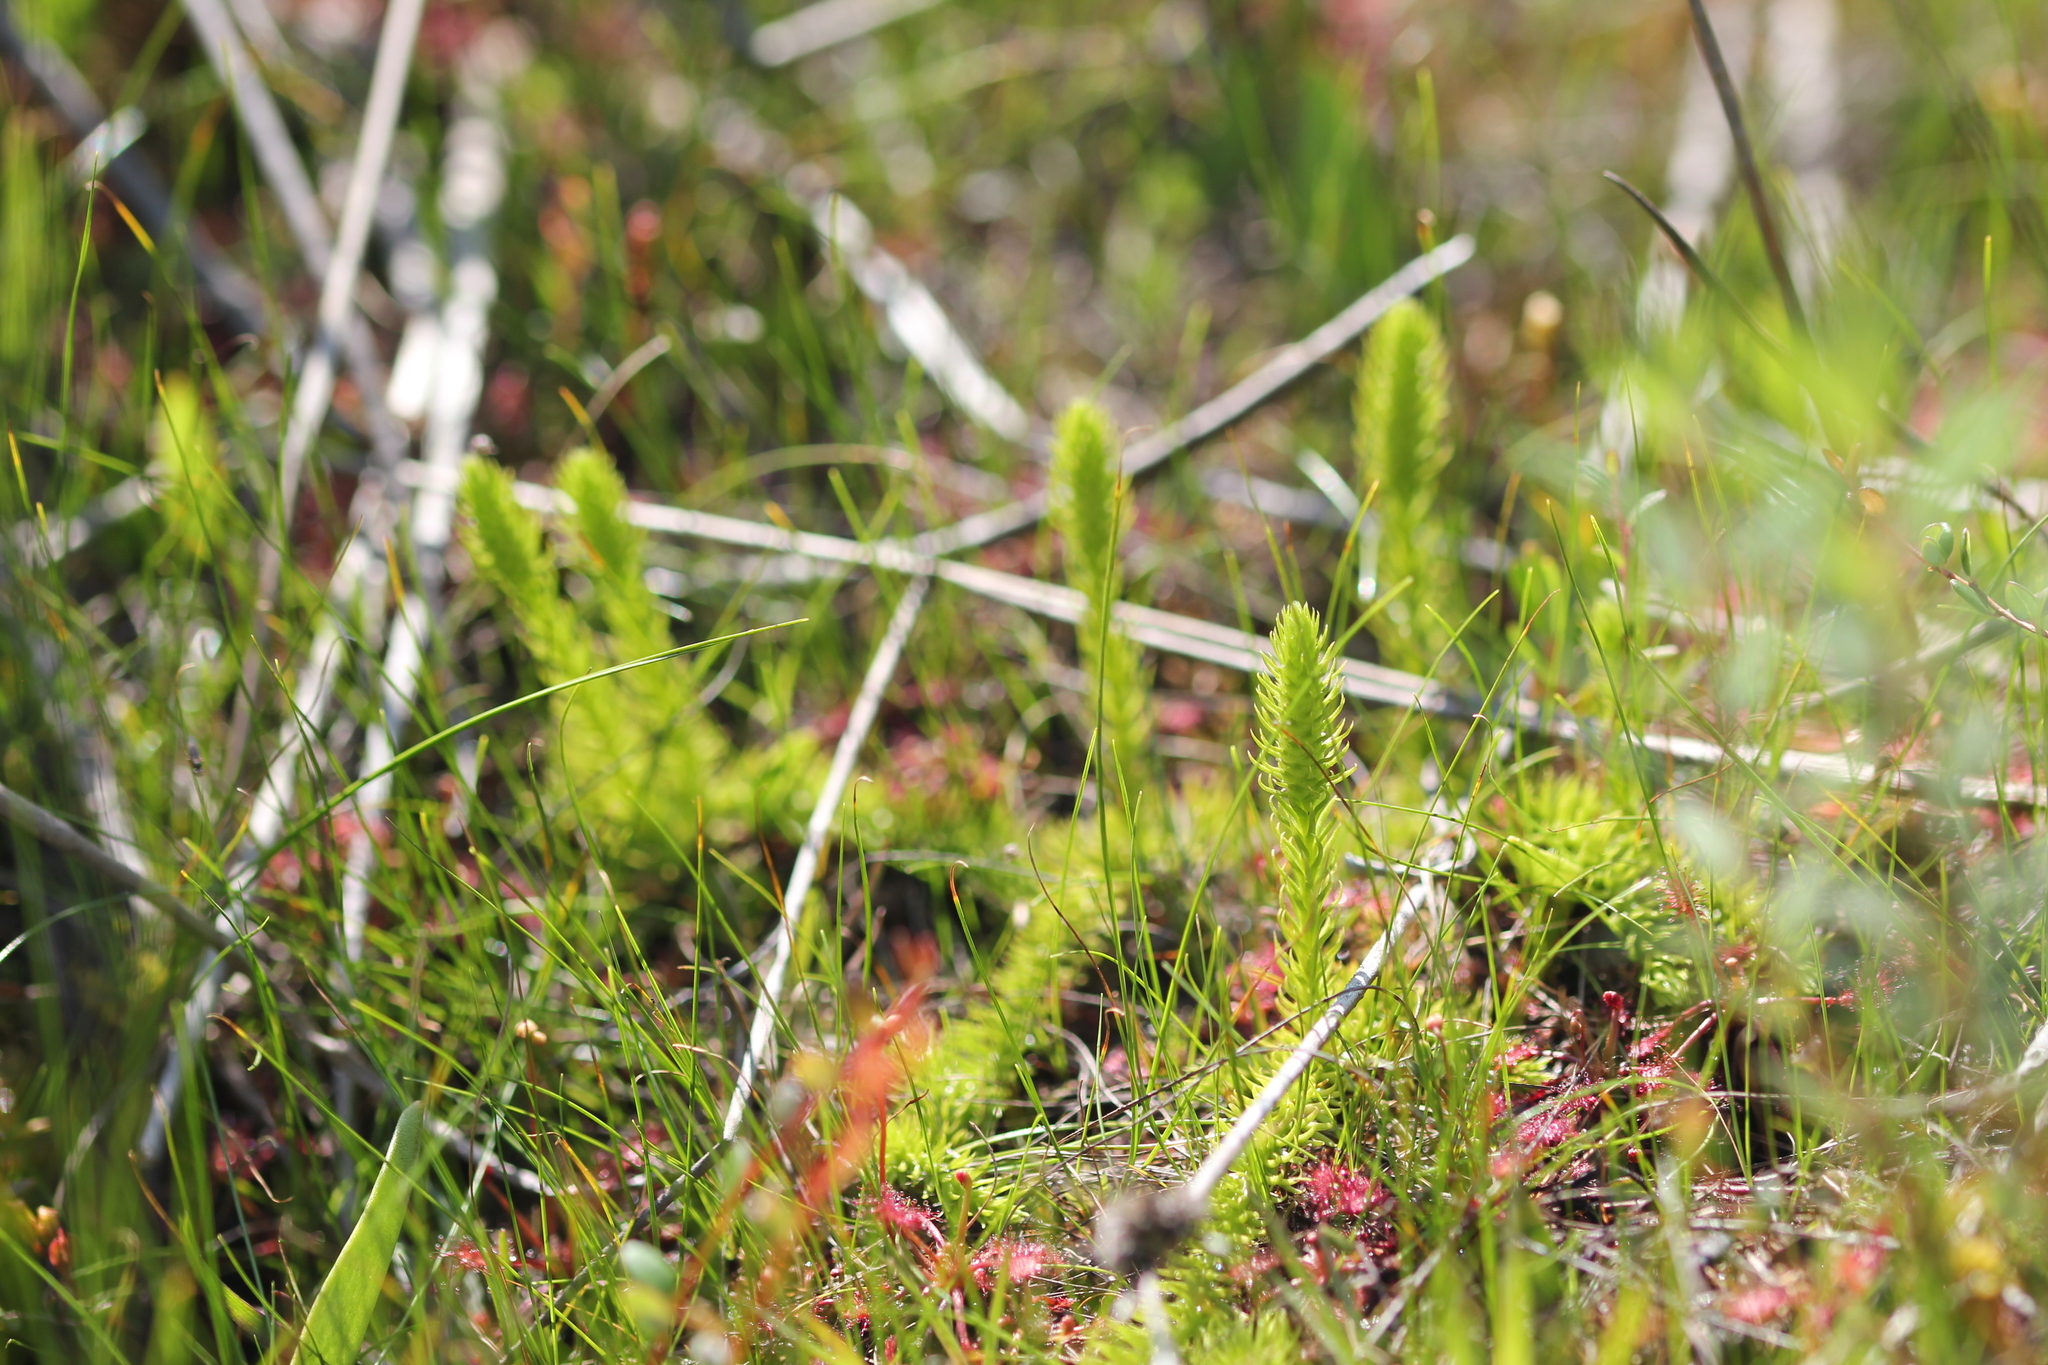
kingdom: Plantae
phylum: Tracheophyta
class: Lycopodiopsida
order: Lycopodiales
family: Lycopodiaceae
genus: Lycopodiella
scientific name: Lycopodiella inundata
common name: Marsh clubmoss
